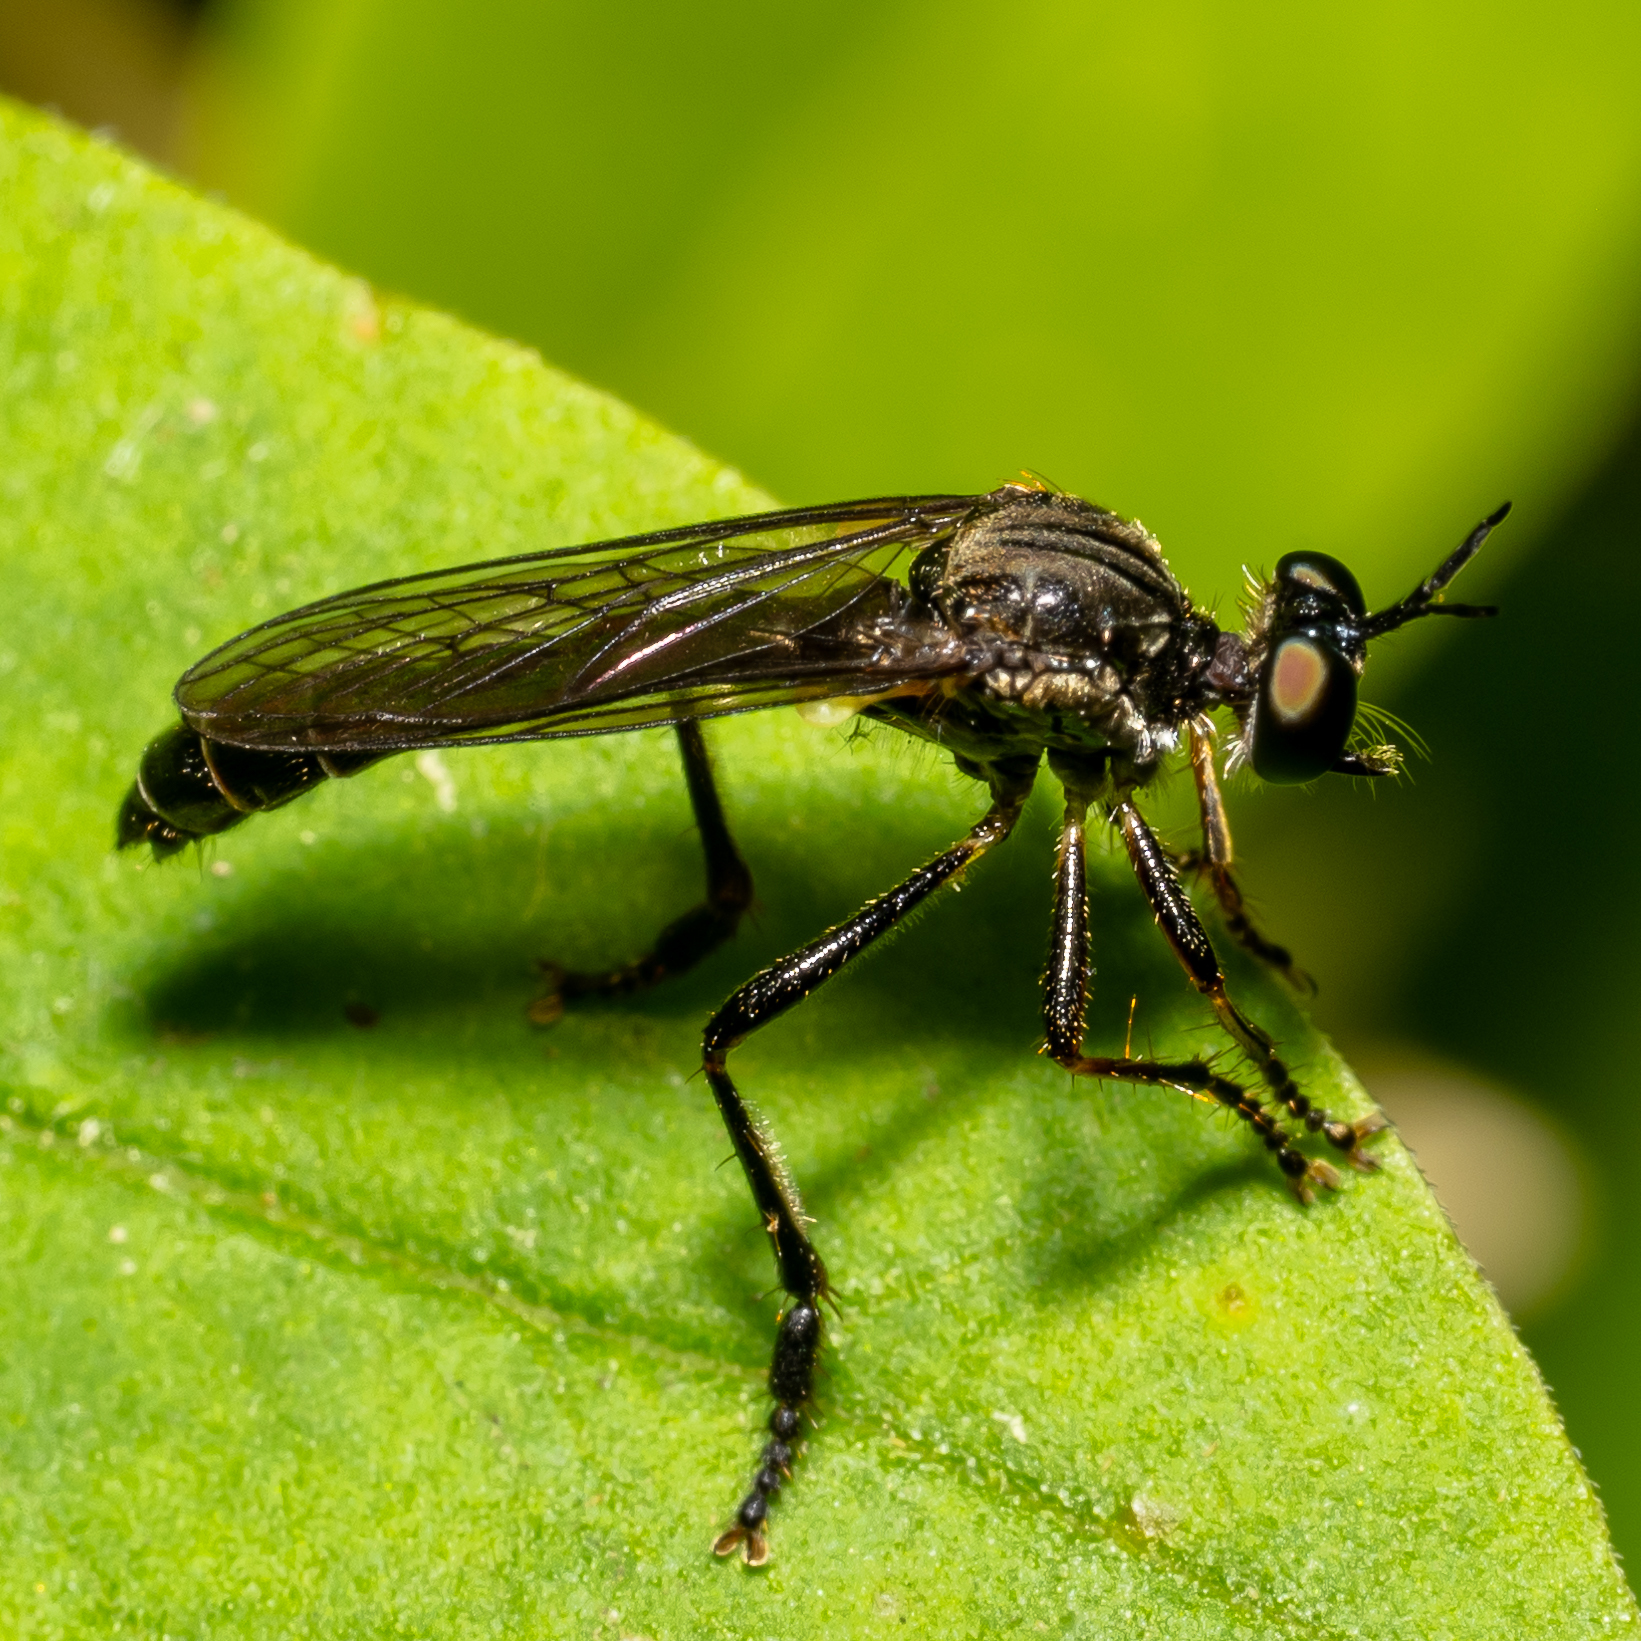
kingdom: Animalia
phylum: Arthropoda
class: Insecta
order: Diptera
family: Asilidae
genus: Dioctria
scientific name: Dioctria hyalipennis
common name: Stripe-legged robberfly
